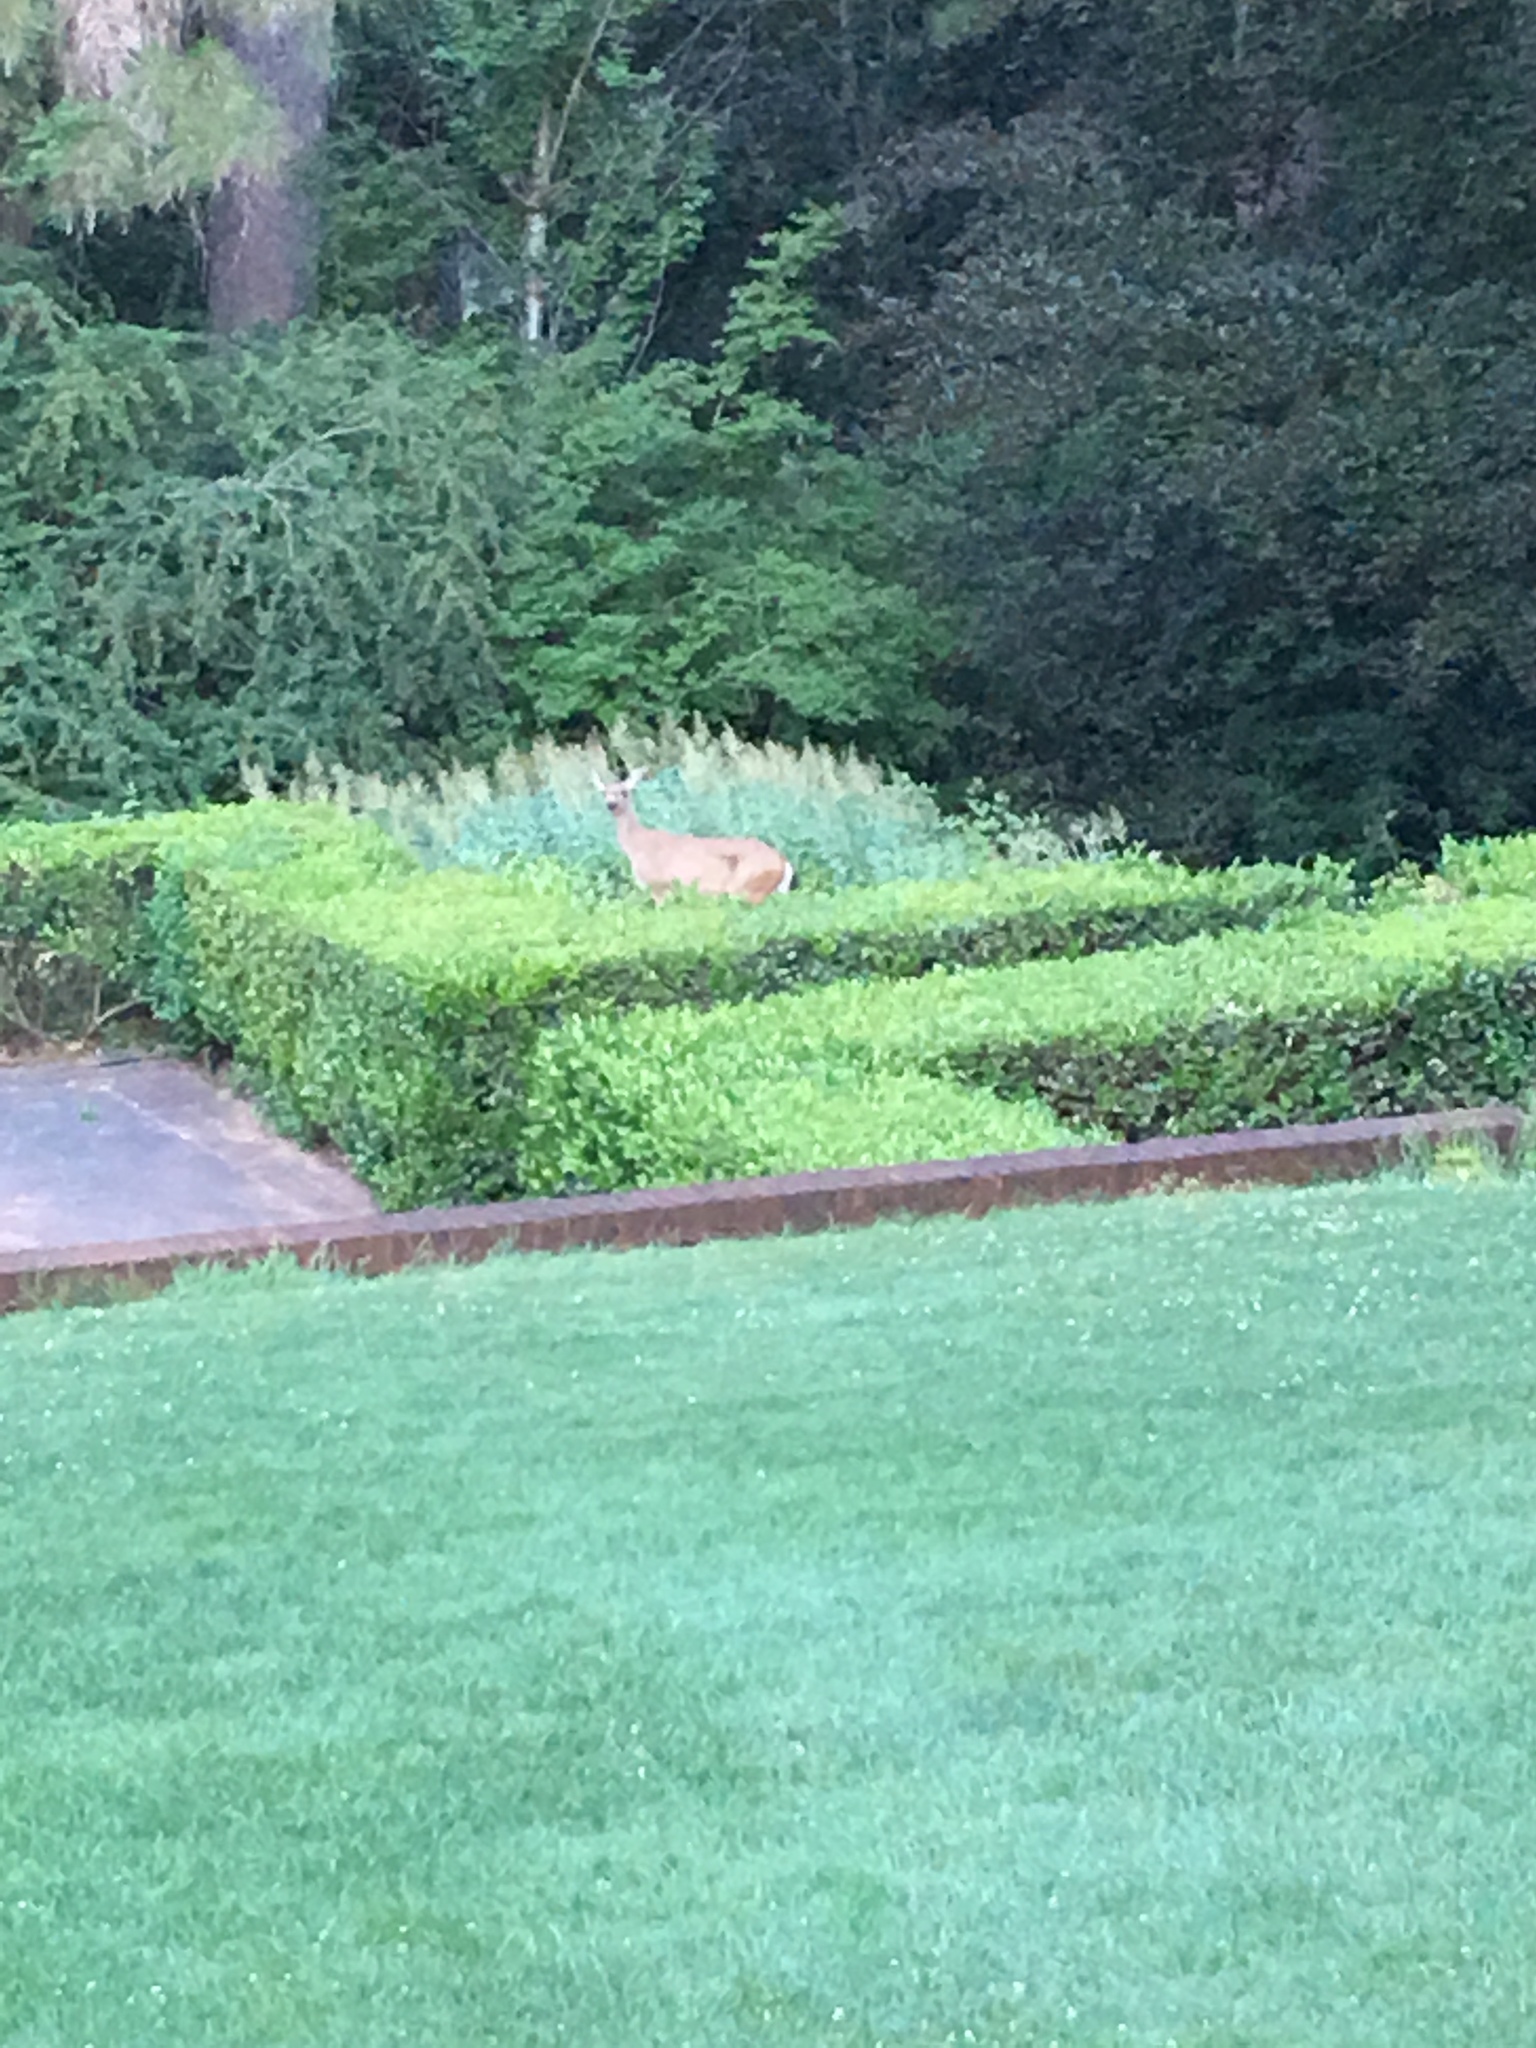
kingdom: Animalia
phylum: Chordata
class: Mammalia
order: Artiodactyla
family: Cervidae
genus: Odocoileus
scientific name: Odocoileus hemionus
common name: Mule deer
